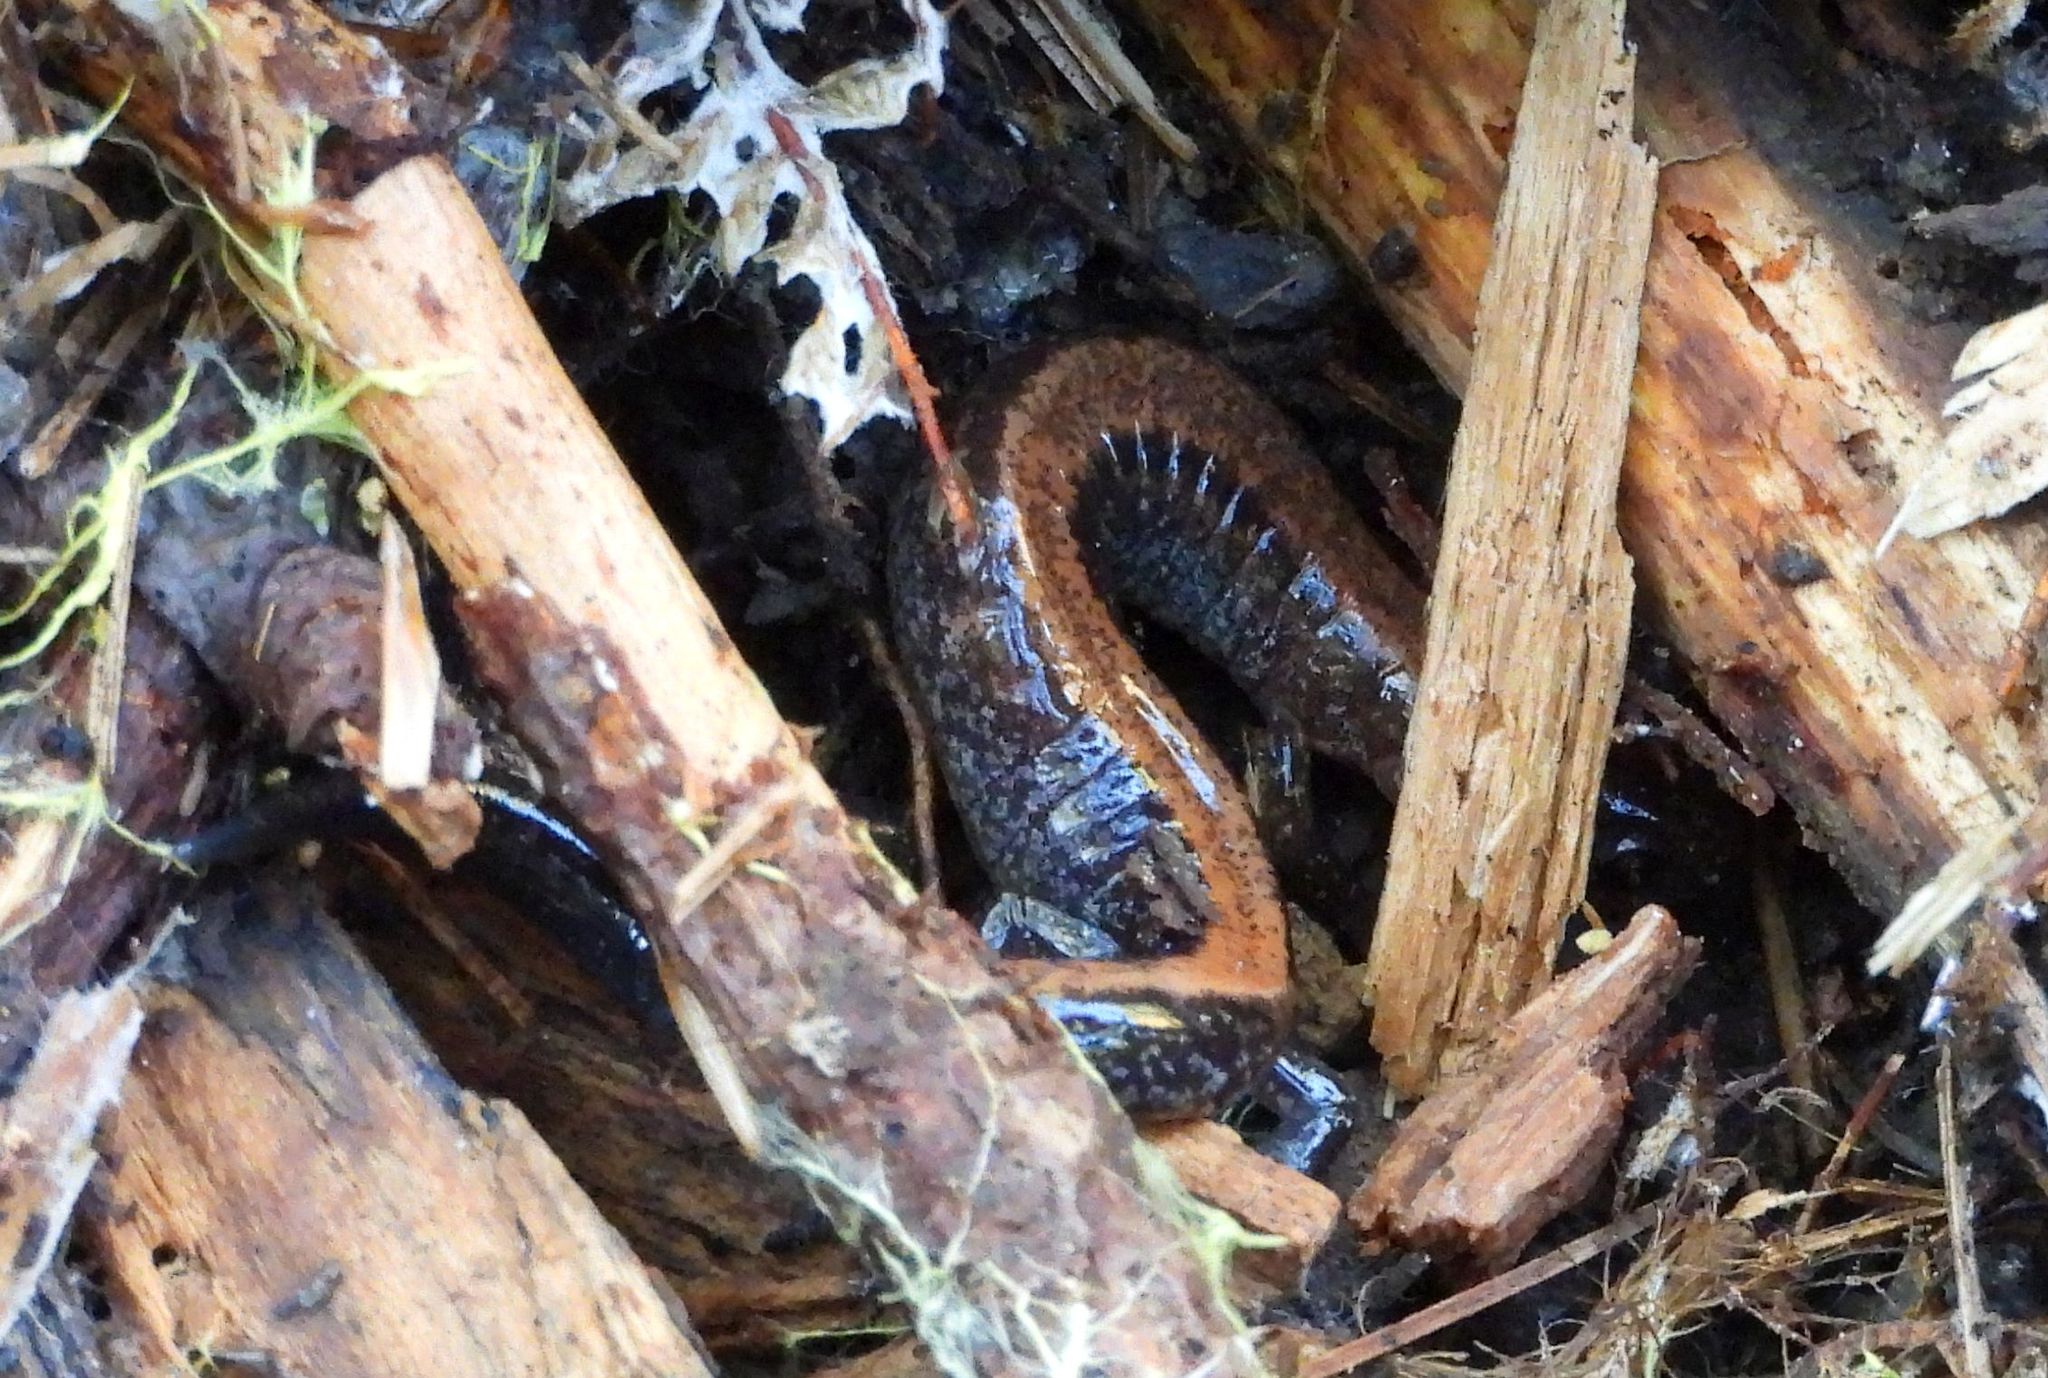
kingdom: Animalia
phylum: Chordata
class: Amphibia
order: Caudata
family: Plethodontidae
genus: Plethodon
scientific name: Plethodon cinereus
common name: Redback salamander
